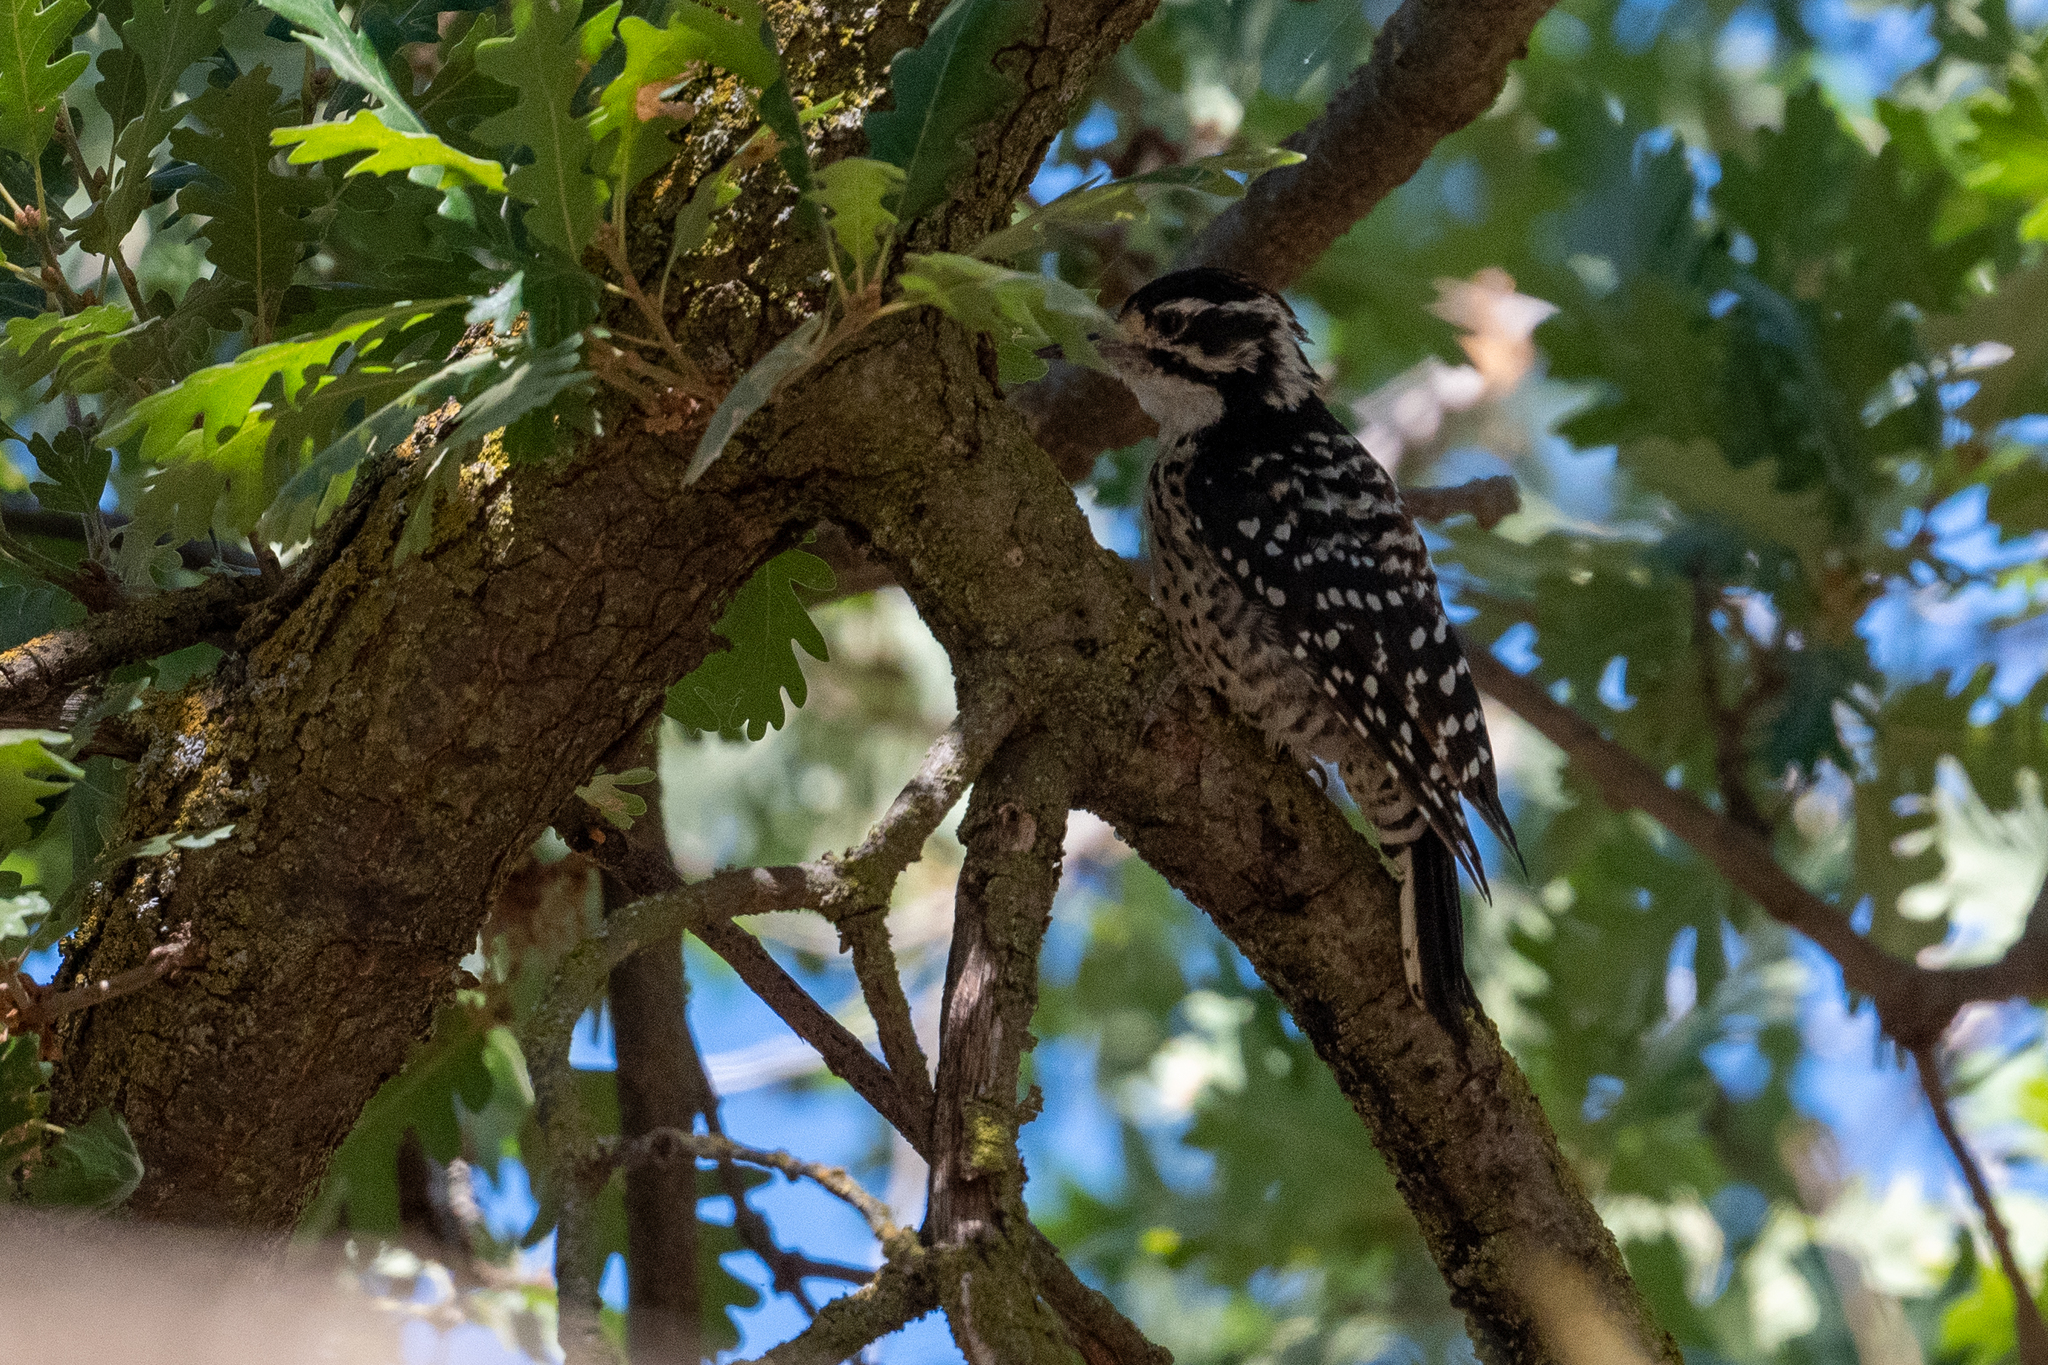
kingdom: Animalia
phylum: Chordata
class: Aves
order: Piciformes
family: Picidae
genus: Dryobates
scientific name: Dryobates nuttallii
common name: Nuttall's woodpecker
